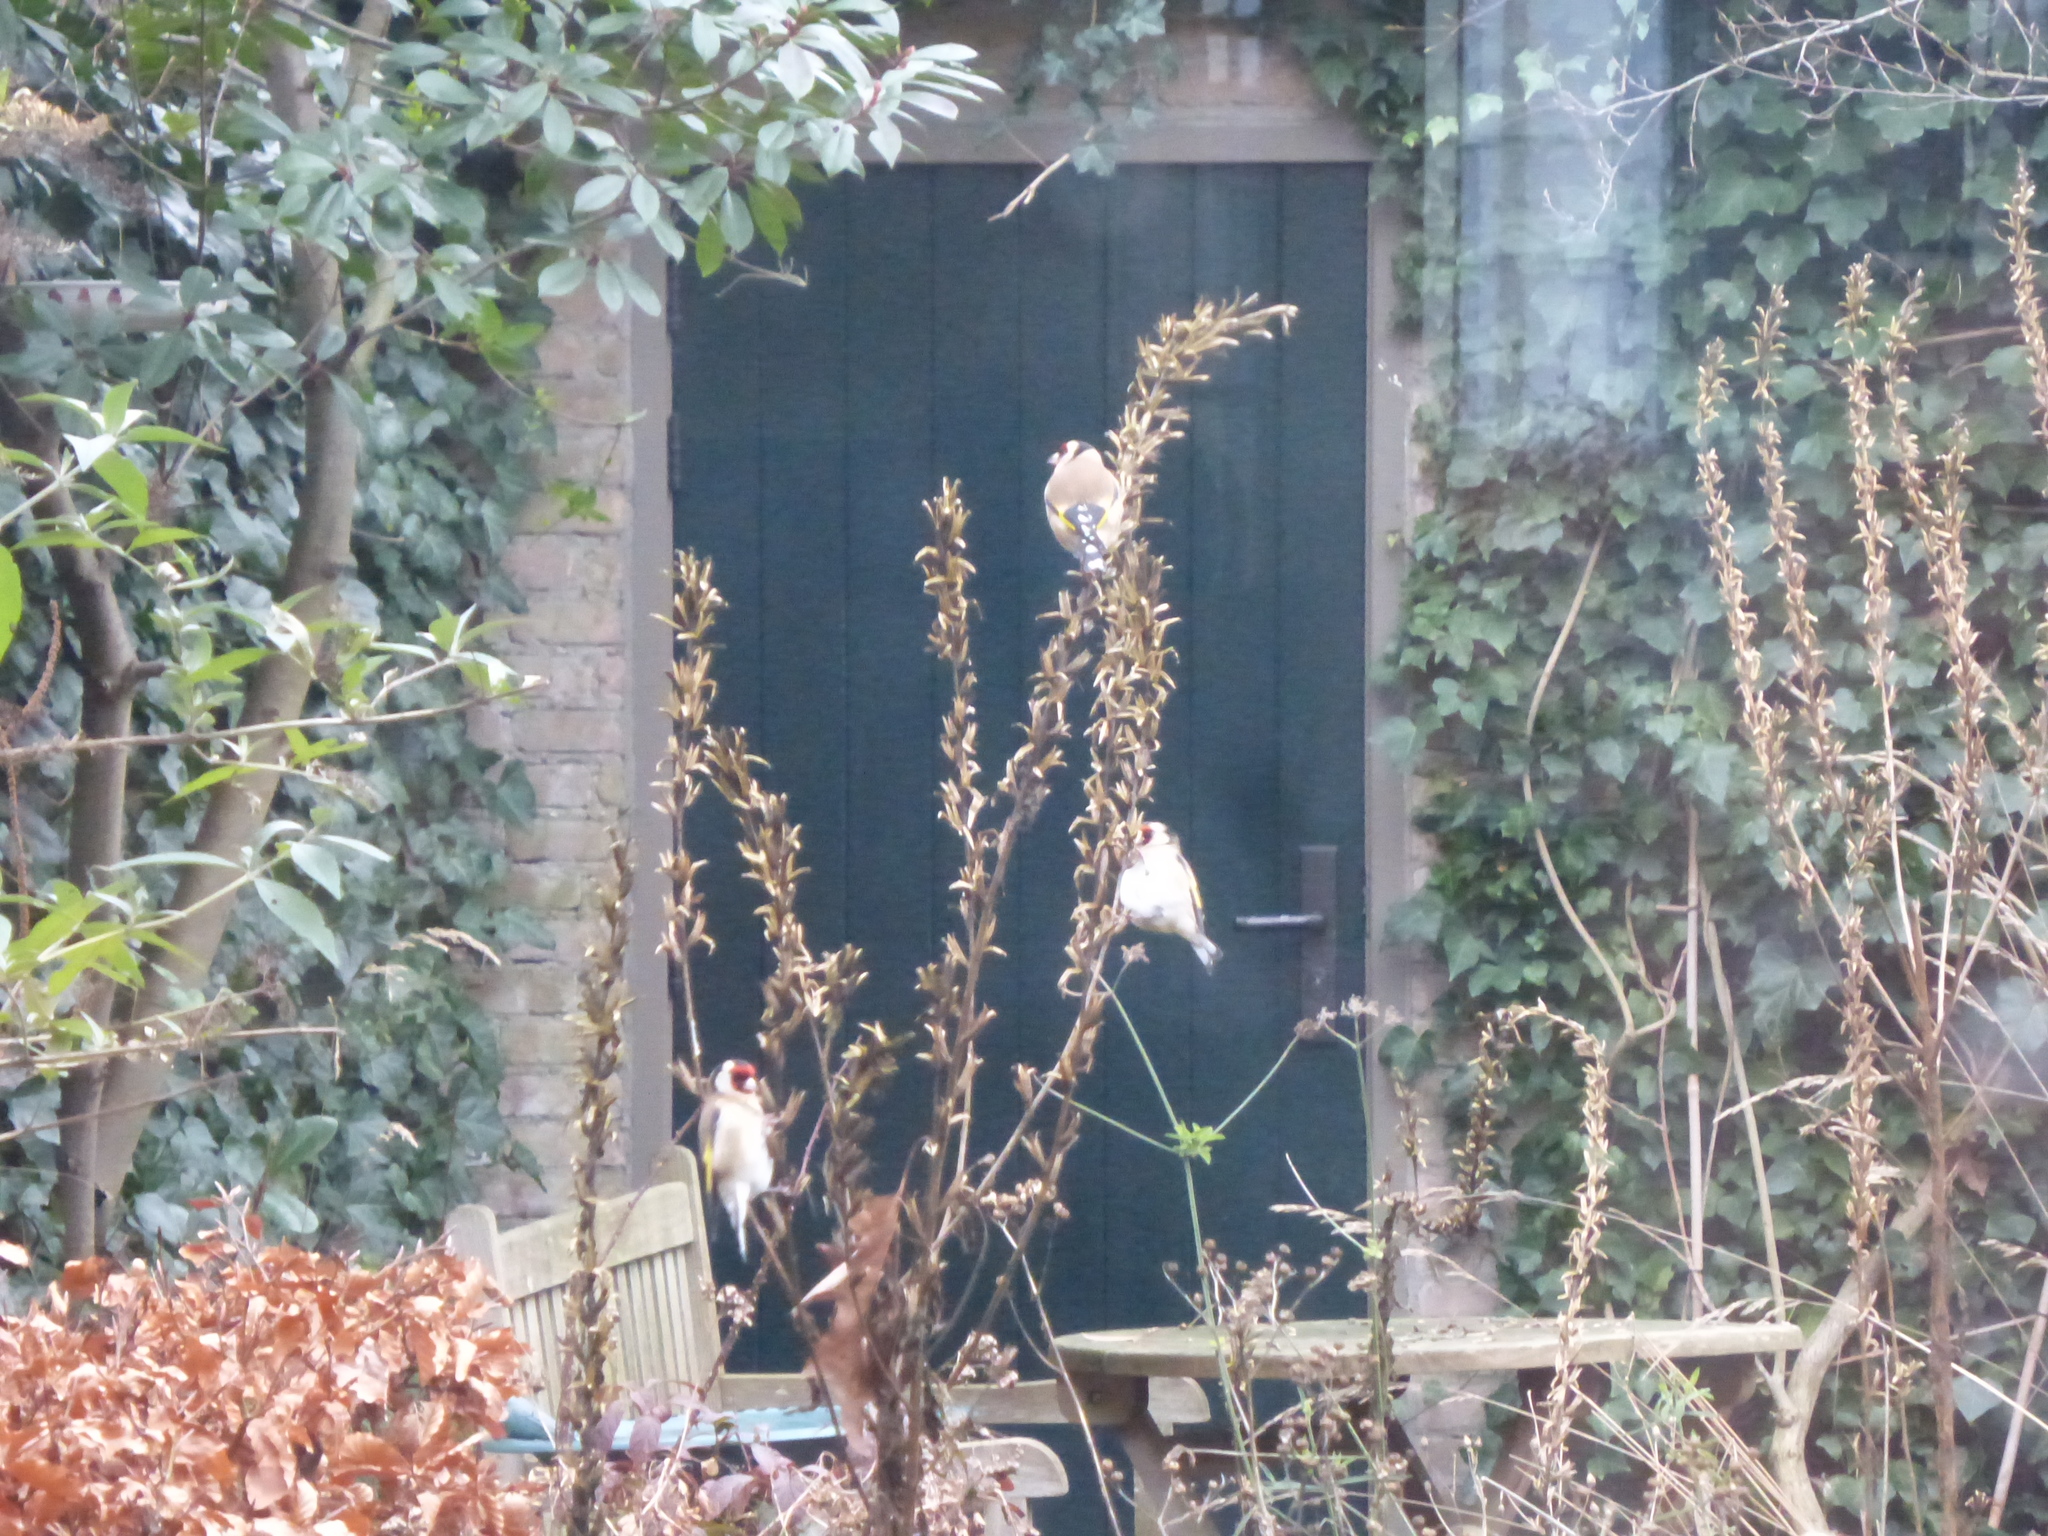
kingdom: Animalia
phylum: Chordata
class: Aves
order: Passeriformes
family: Fringillidae
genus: Carduelis
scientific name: Carduelis carduelis
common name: European goldfinch
